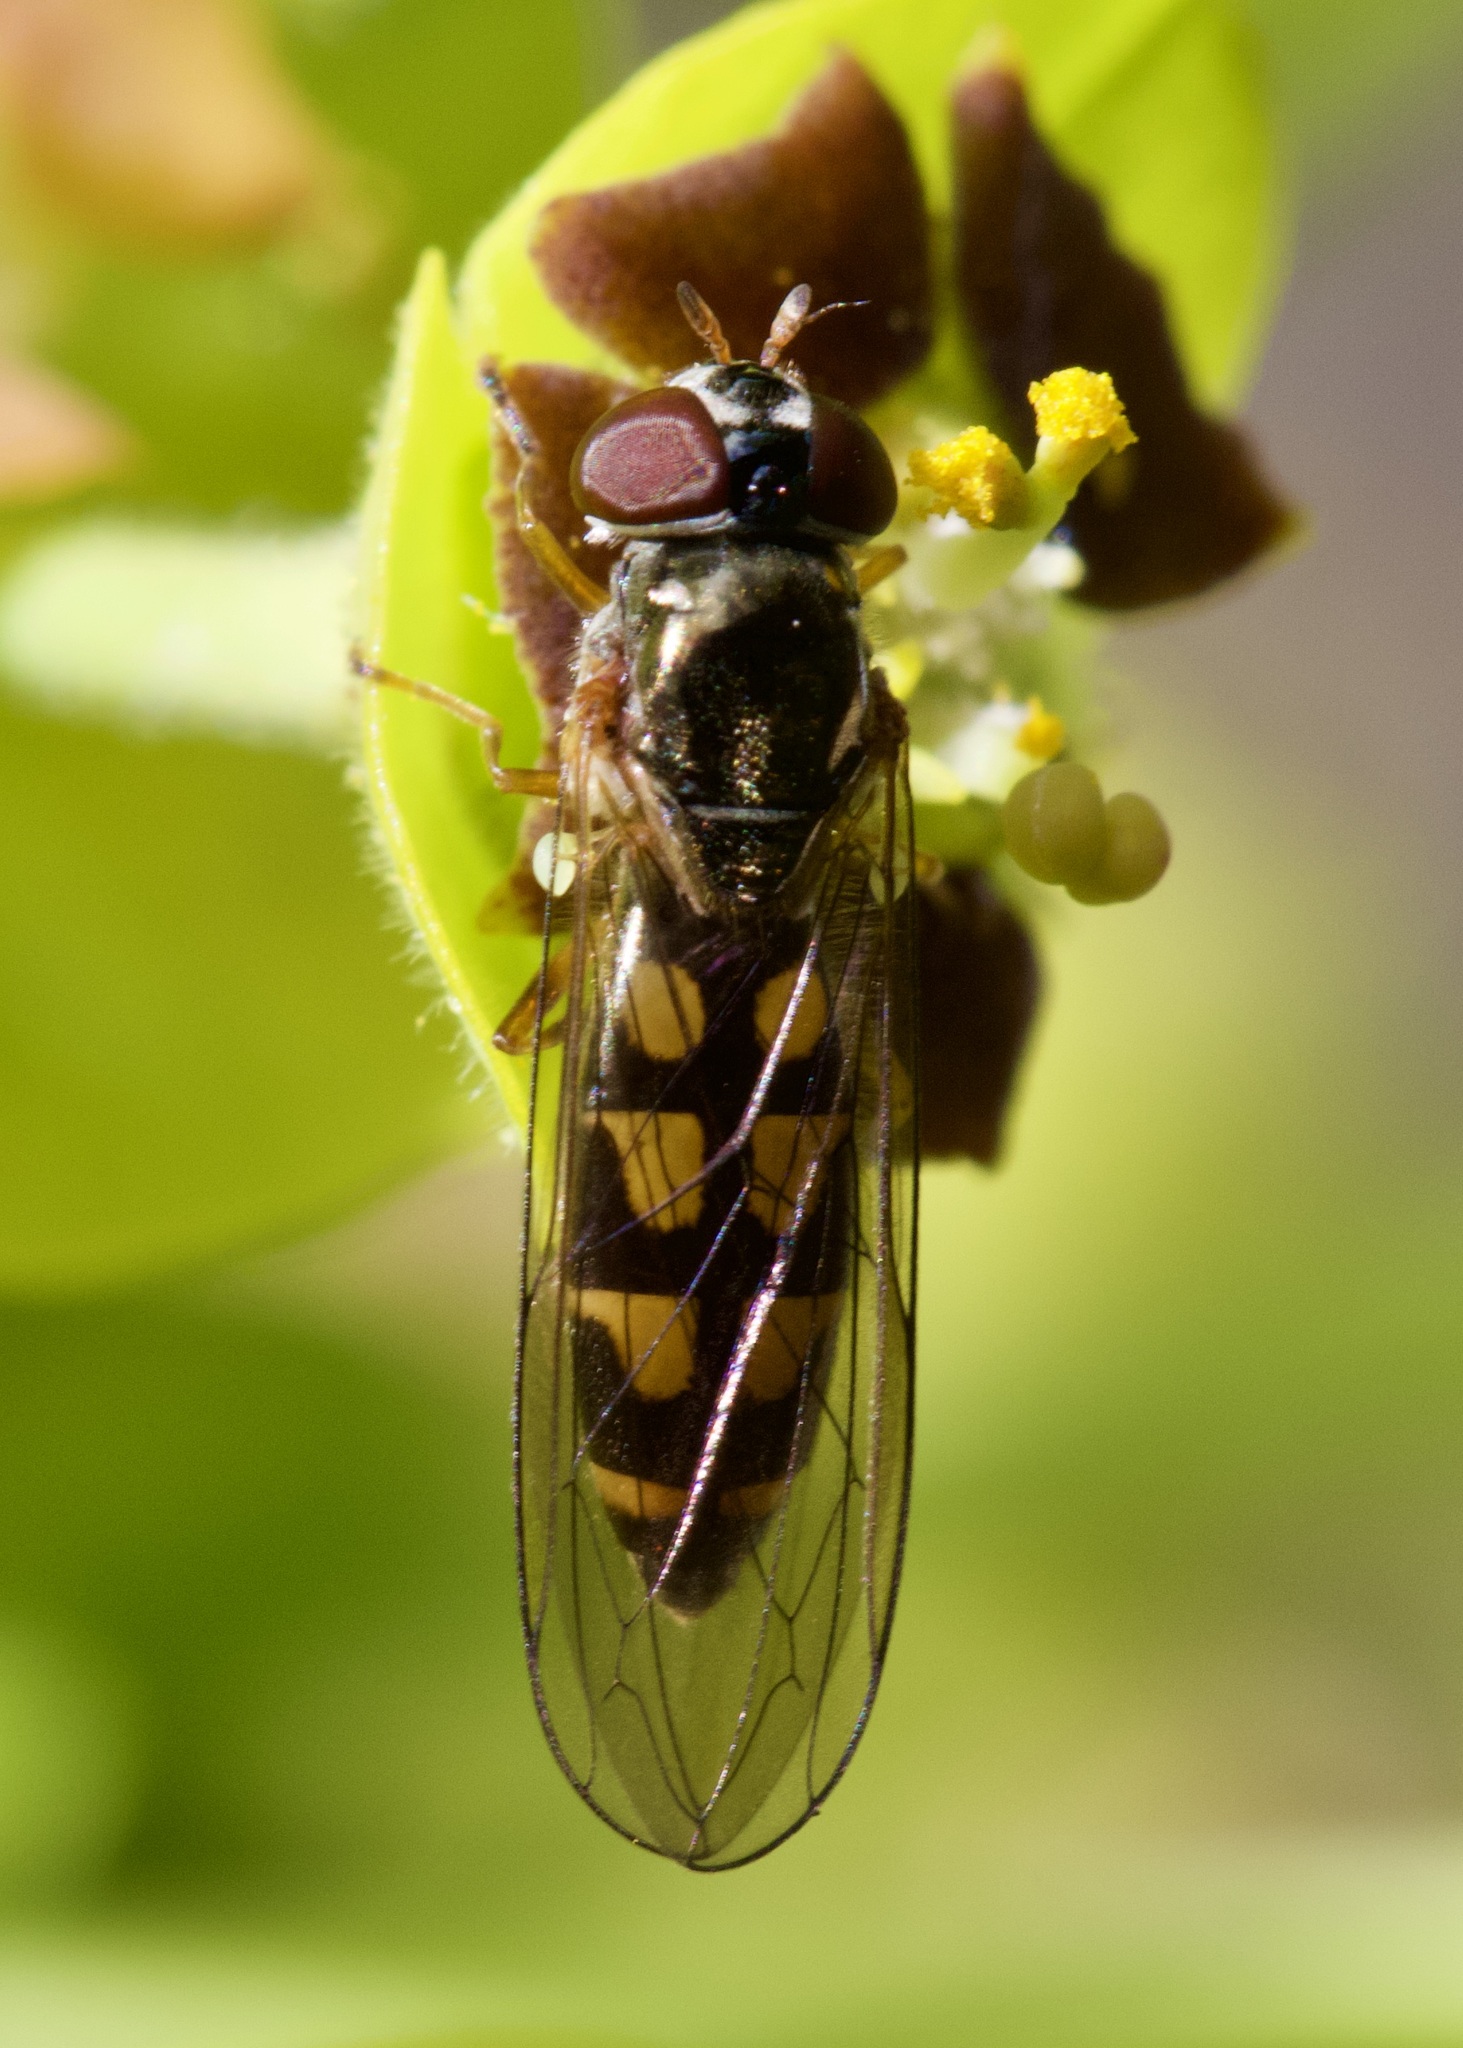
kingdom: Animalia
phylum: Arthropoda
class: Insecta
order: Diptera
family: Syrphidae
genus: Melanostoma
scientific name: Melanostoma scalare
